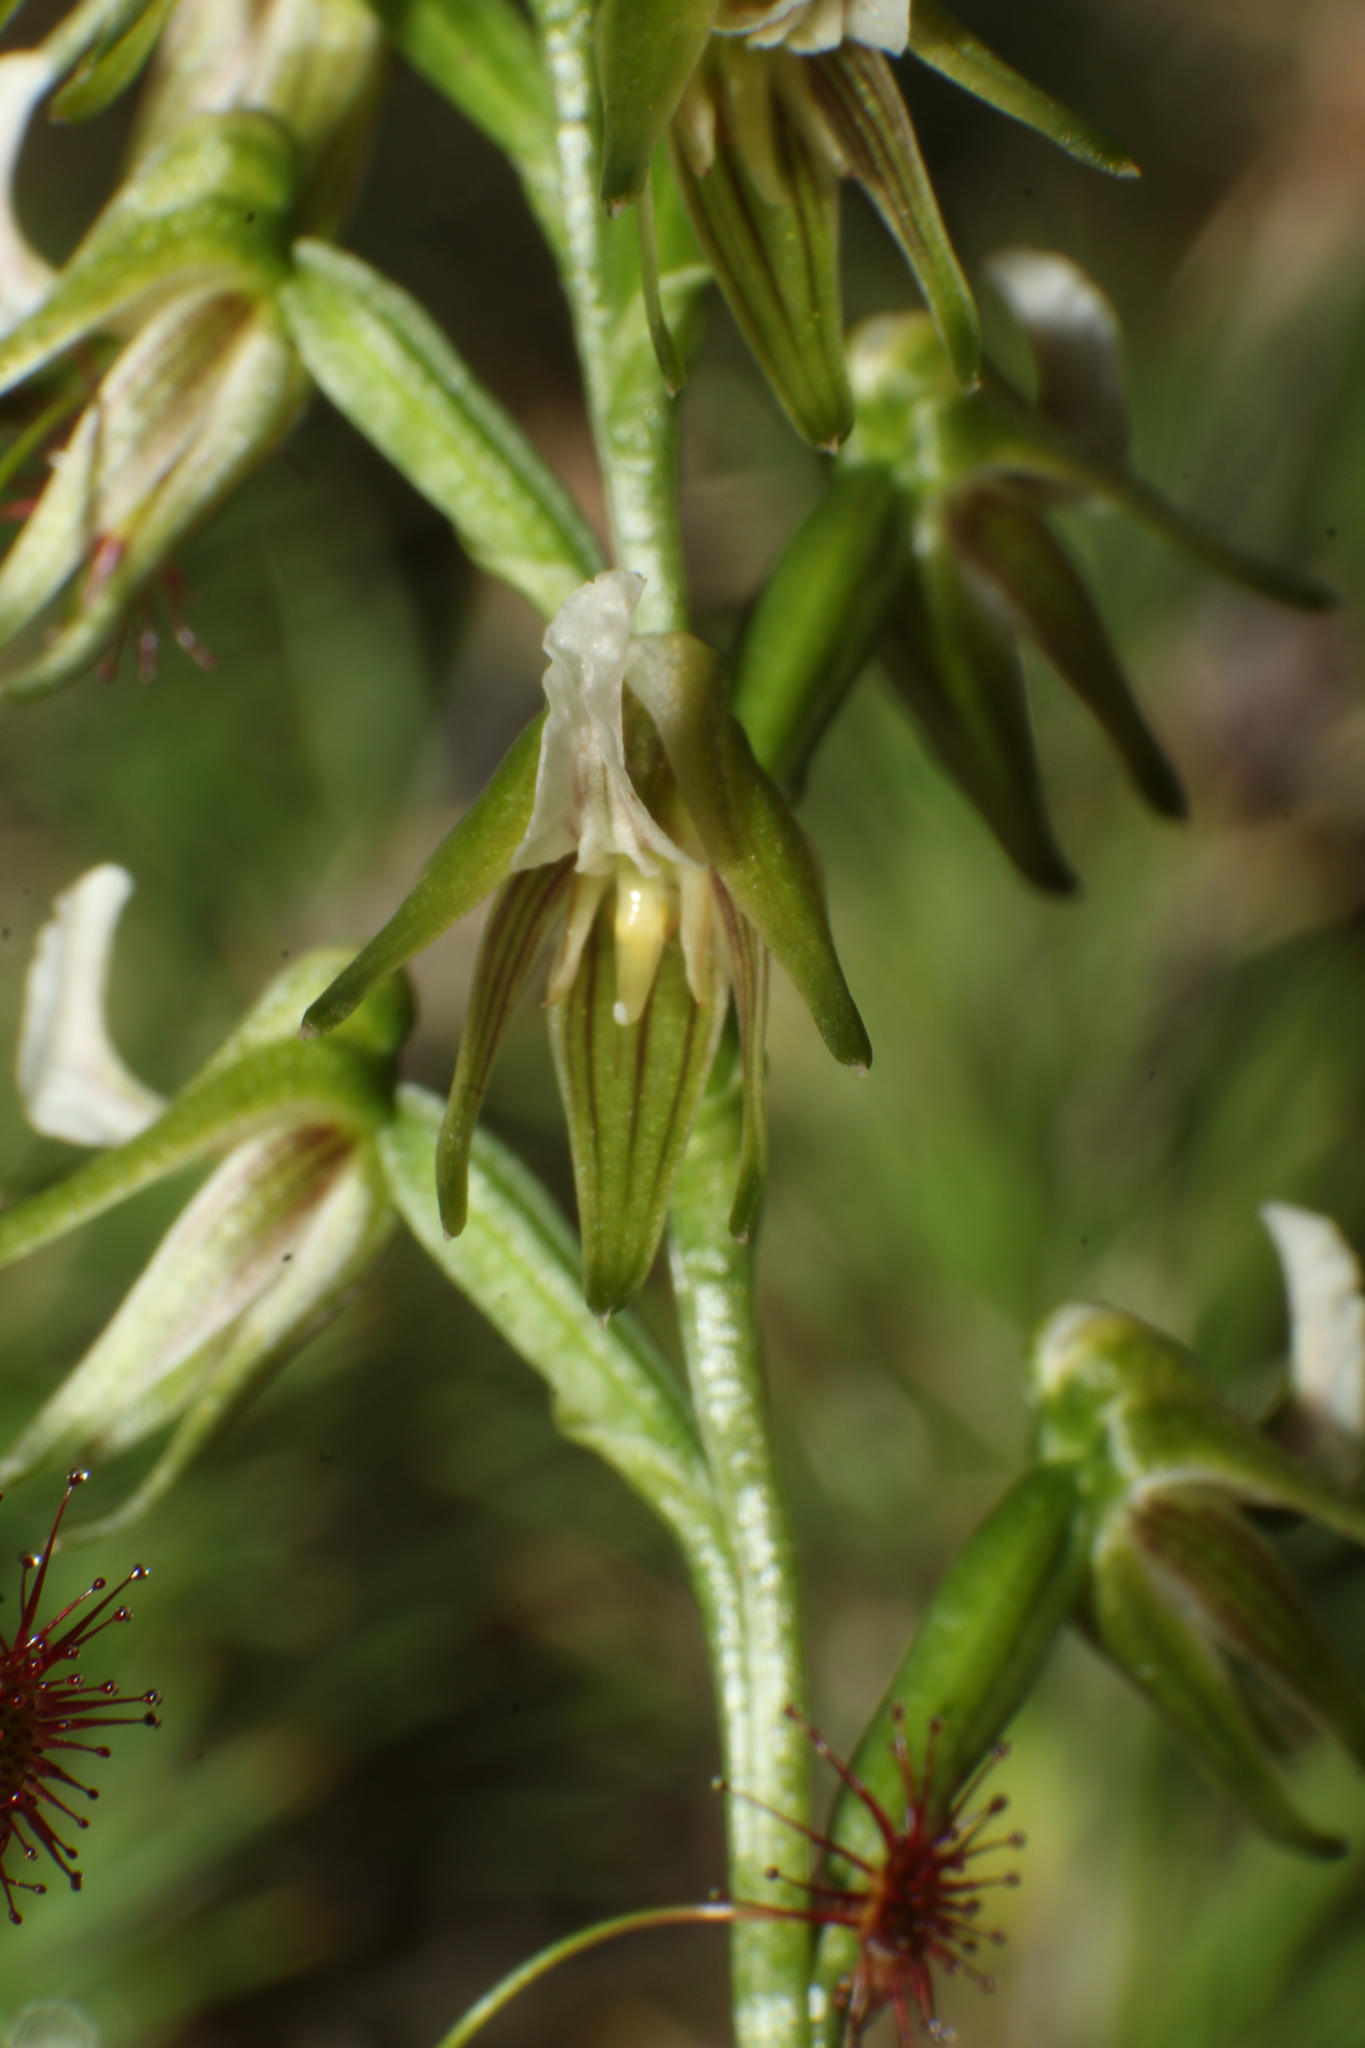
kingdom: Plantae
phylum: Tracheophyta
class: Liliopsida
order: Asparagales
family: Orchidaceae
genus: Prasophyllum
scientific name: Prasophyllum parvifolium
